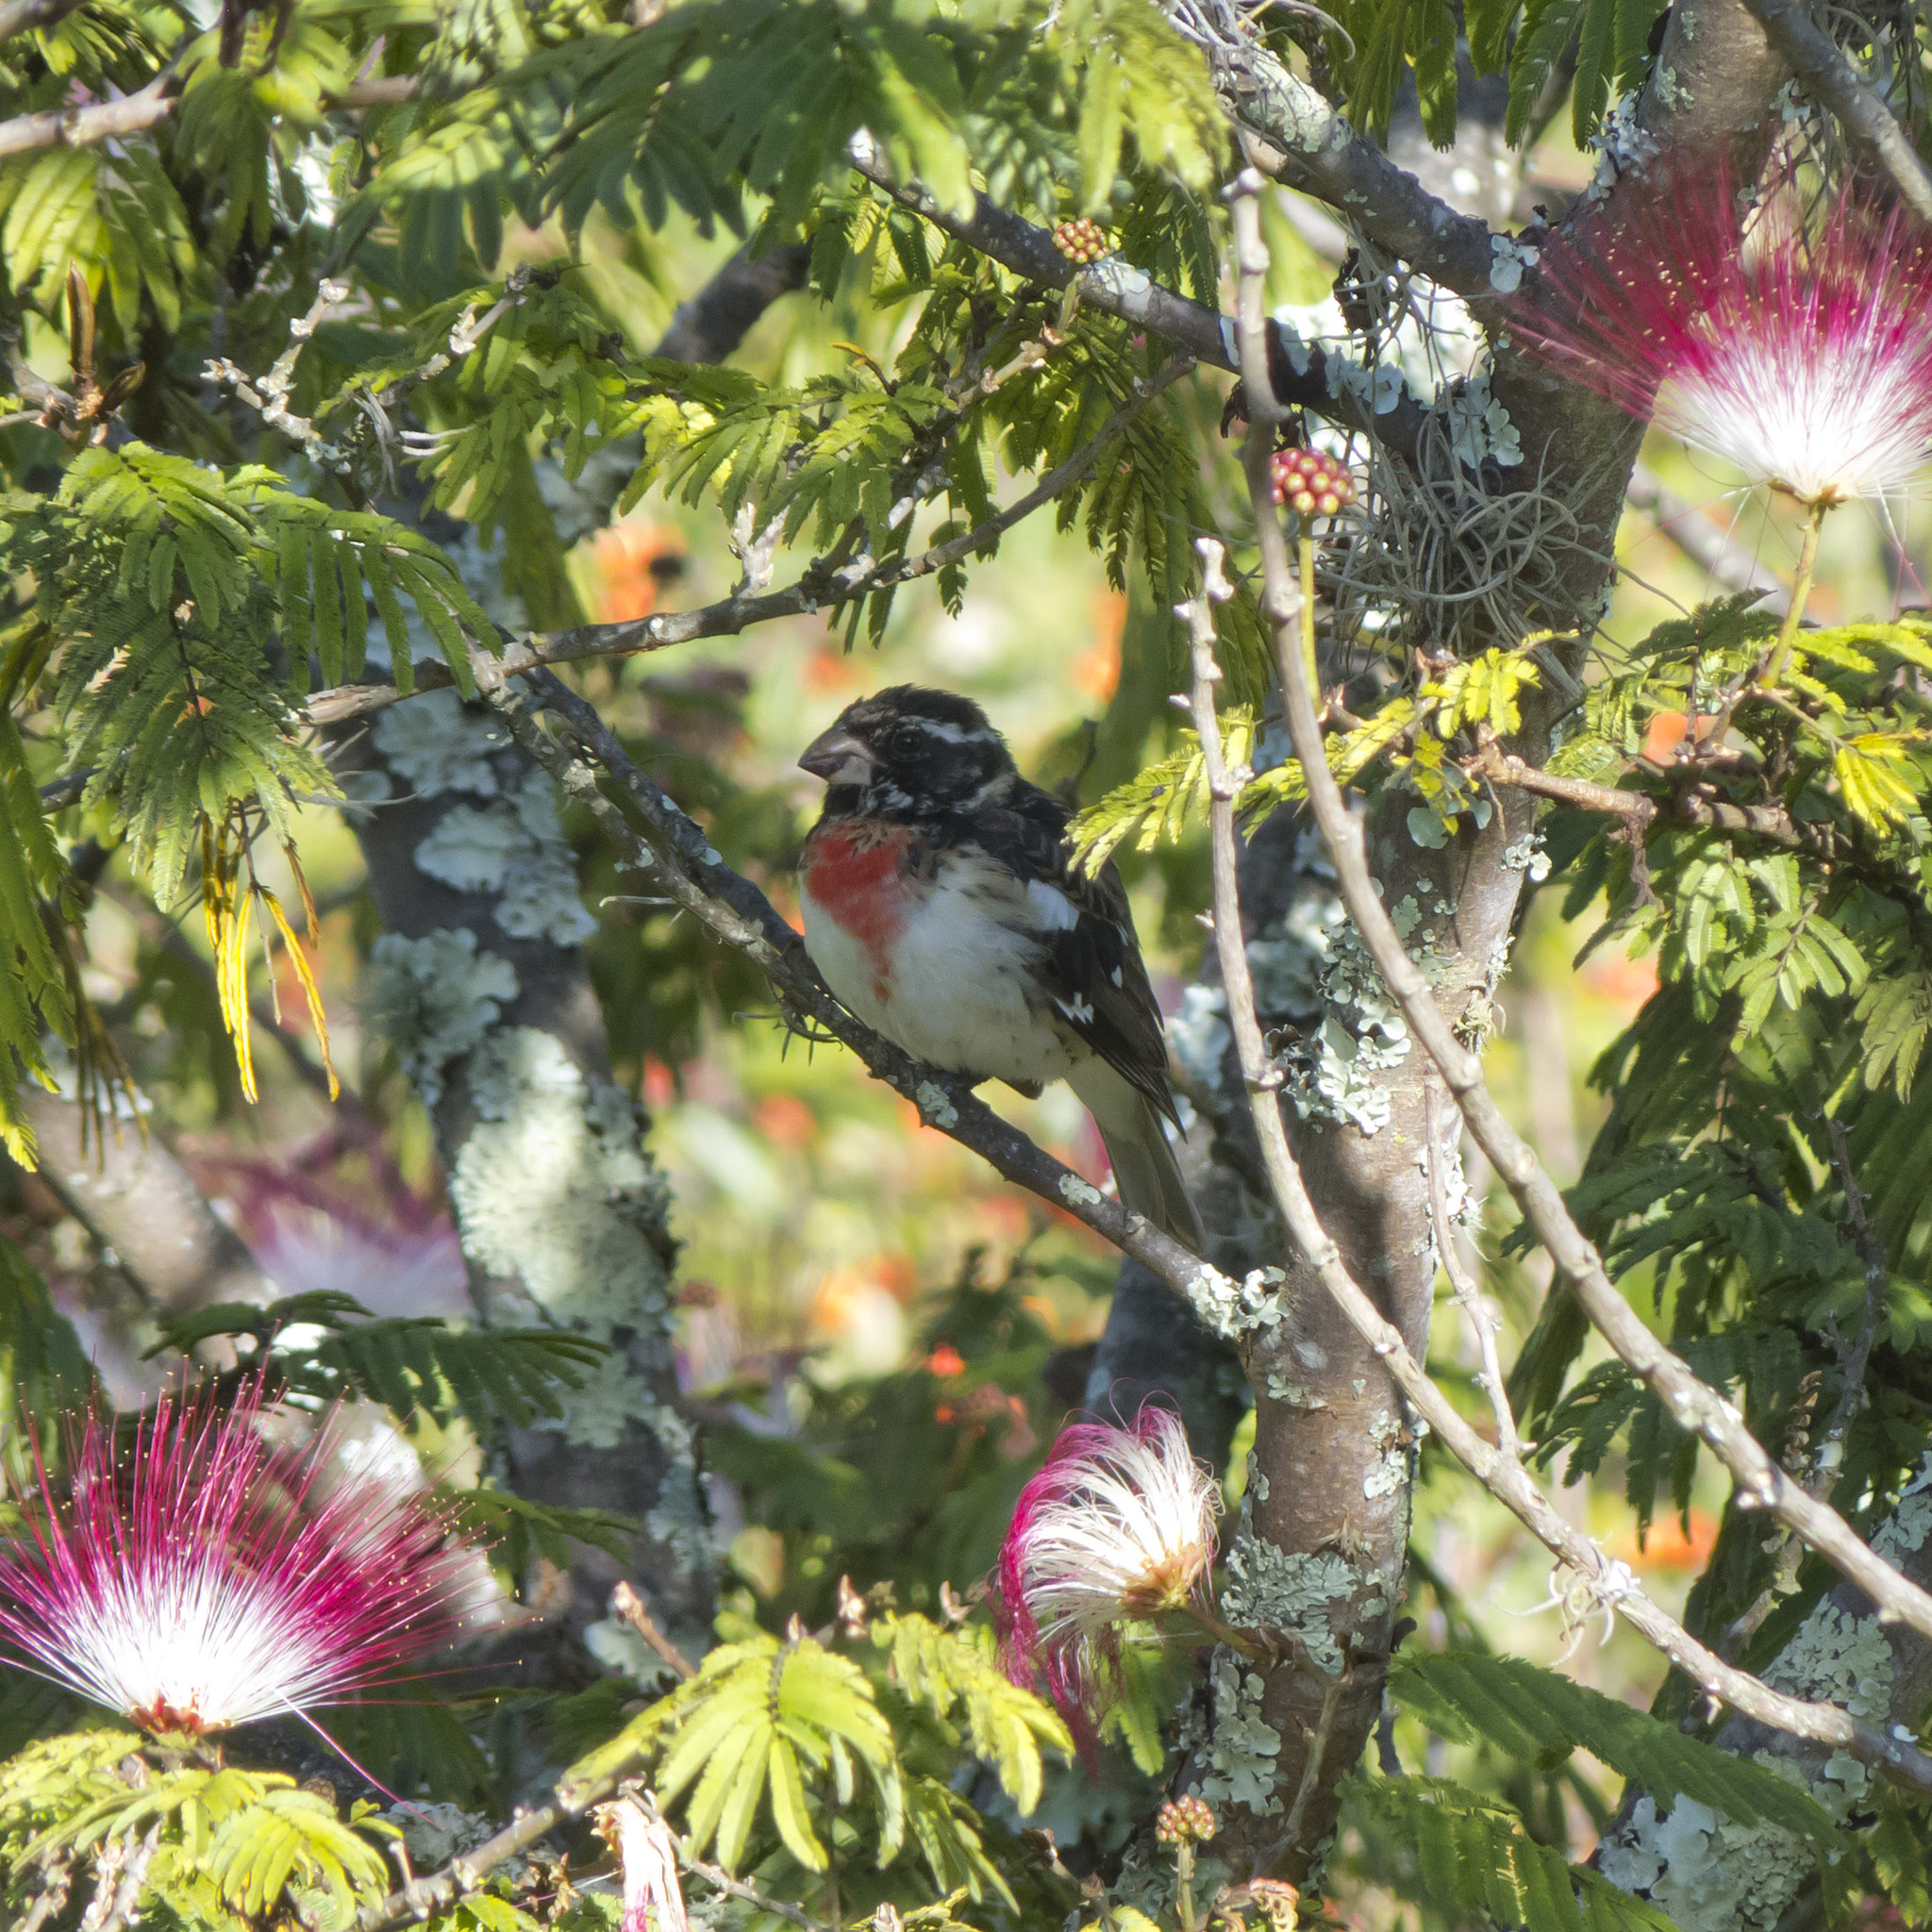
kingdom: Animalia
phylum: Chordata
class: Aves
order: Passeriformes
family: Cardinalidae
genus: Pheucticus
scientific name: Pheucticus ludovicianus
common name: Rose-breasted grosbeak
